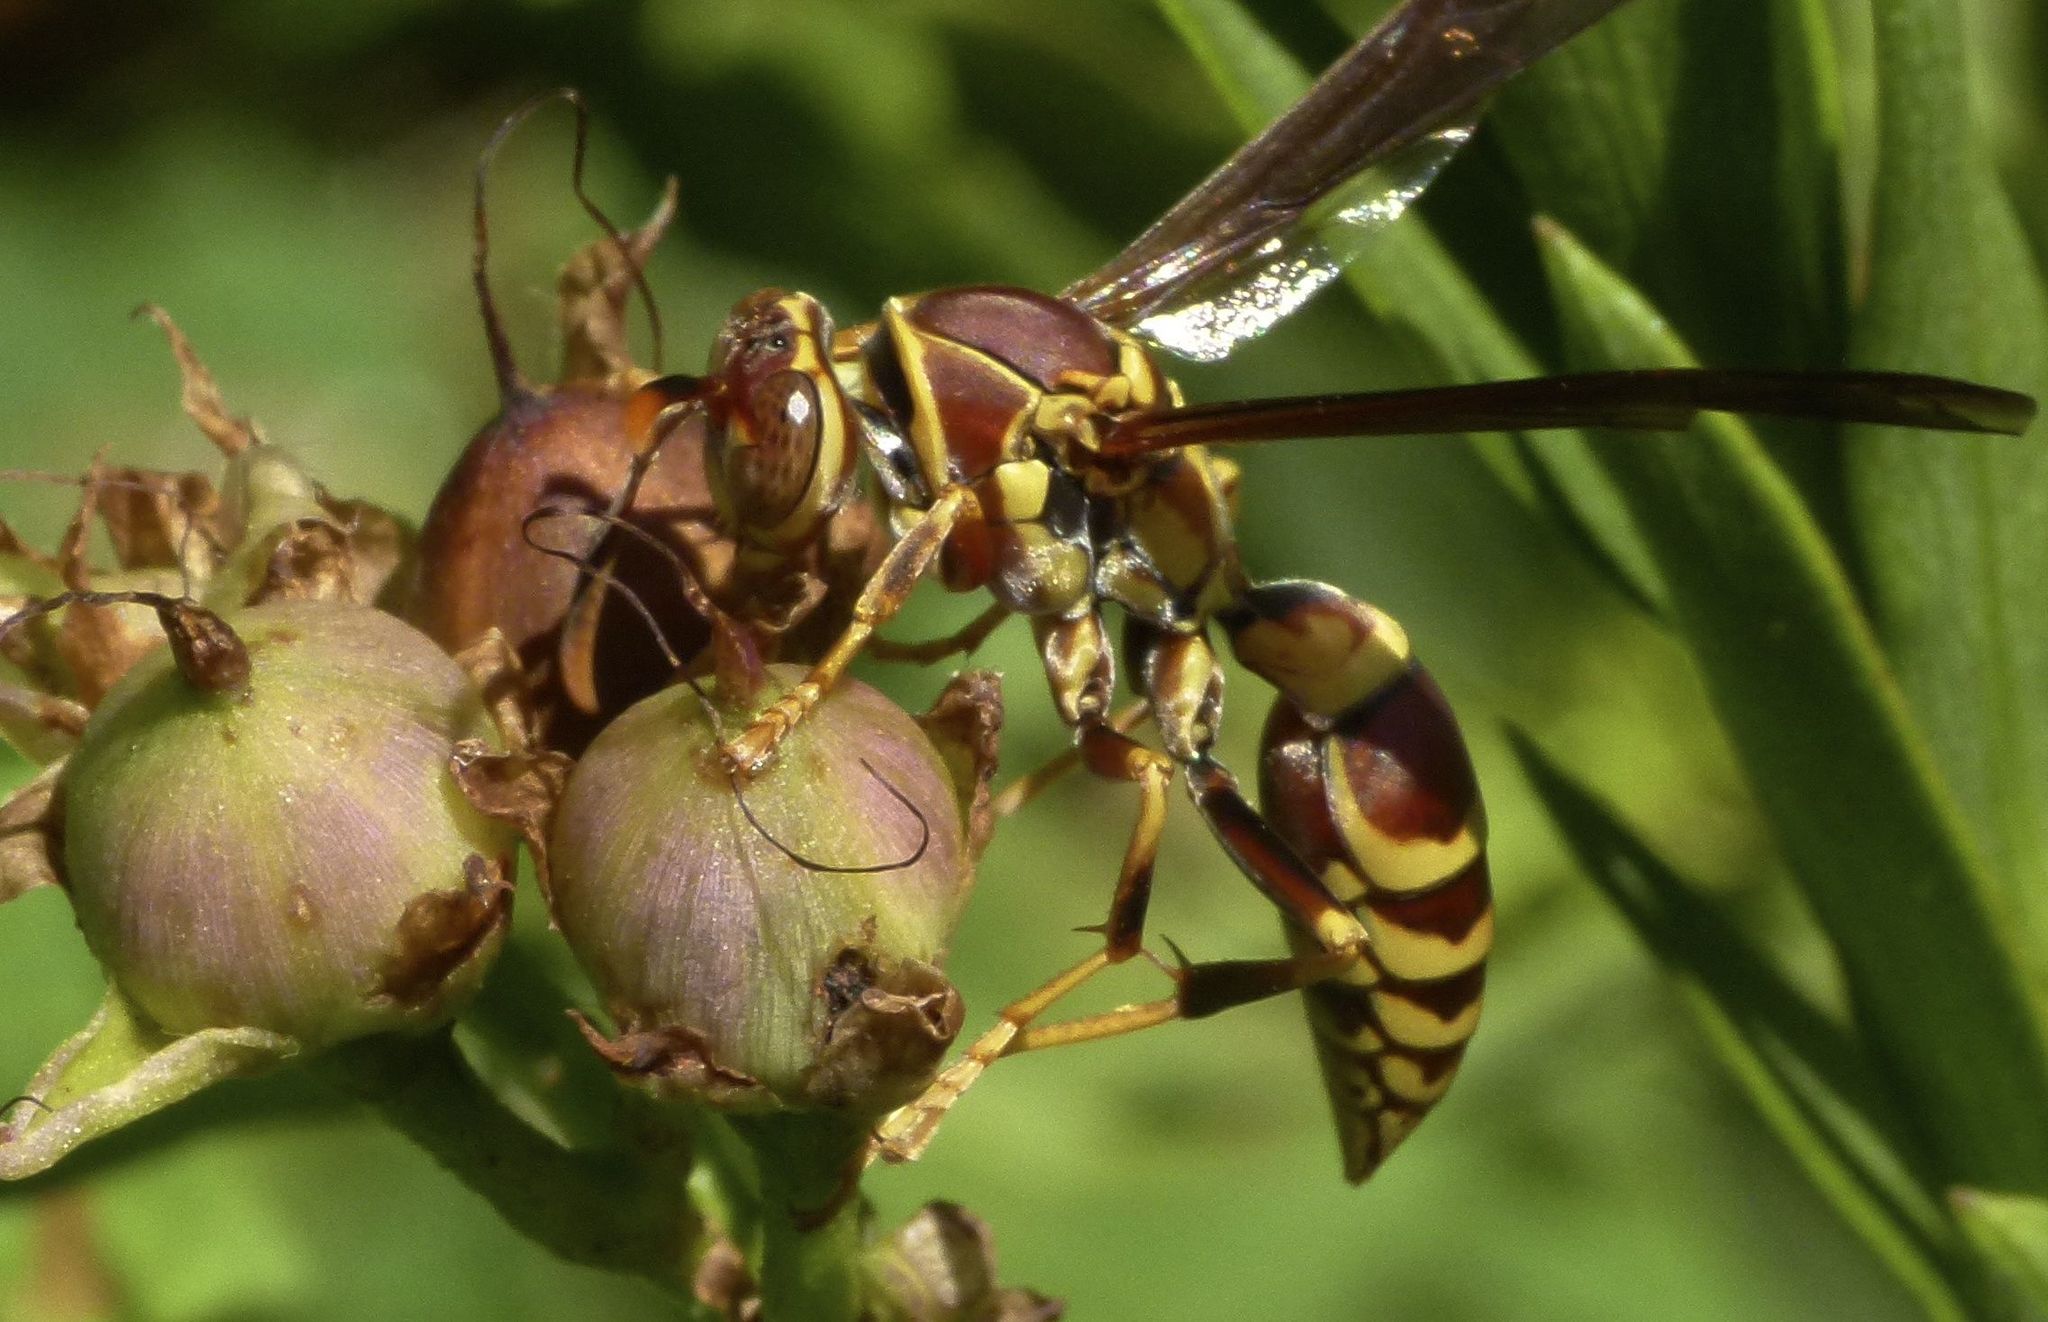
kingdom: Animalia
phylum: Arthropoda
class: Insecta
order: Hymenoptera
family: Eumenidae
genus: Polistes
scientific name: Polistes exclamans
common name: Paper wasp
